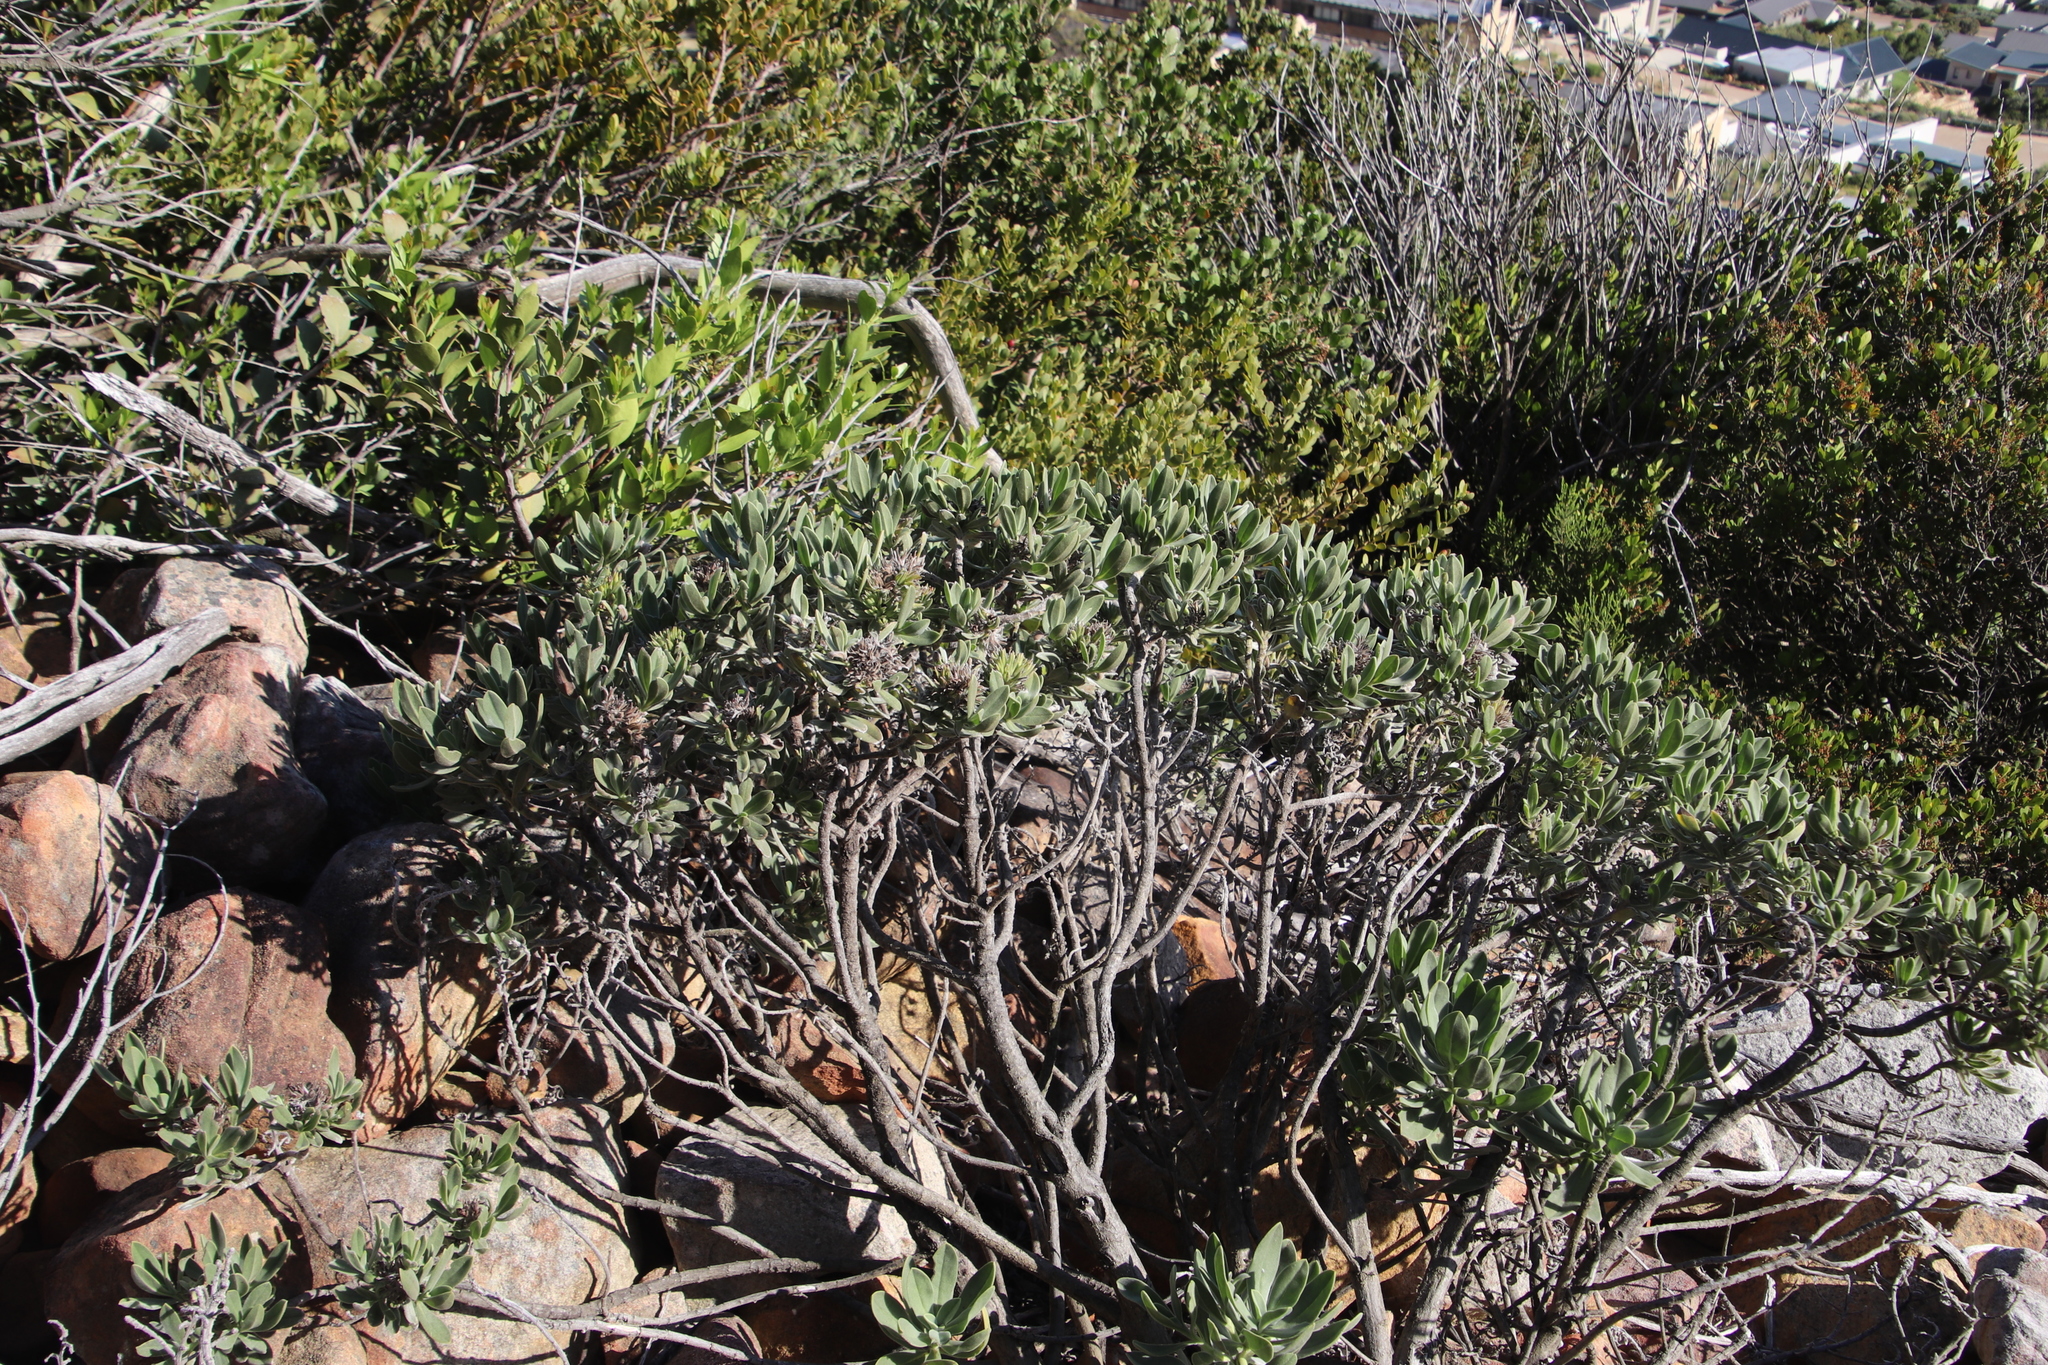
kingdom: Plantae
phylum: Tracheophyta
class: Magnoliopsida
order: Boraginales
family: Boraginaceae
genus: Lobostemon
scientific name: Lobostemon montanus
